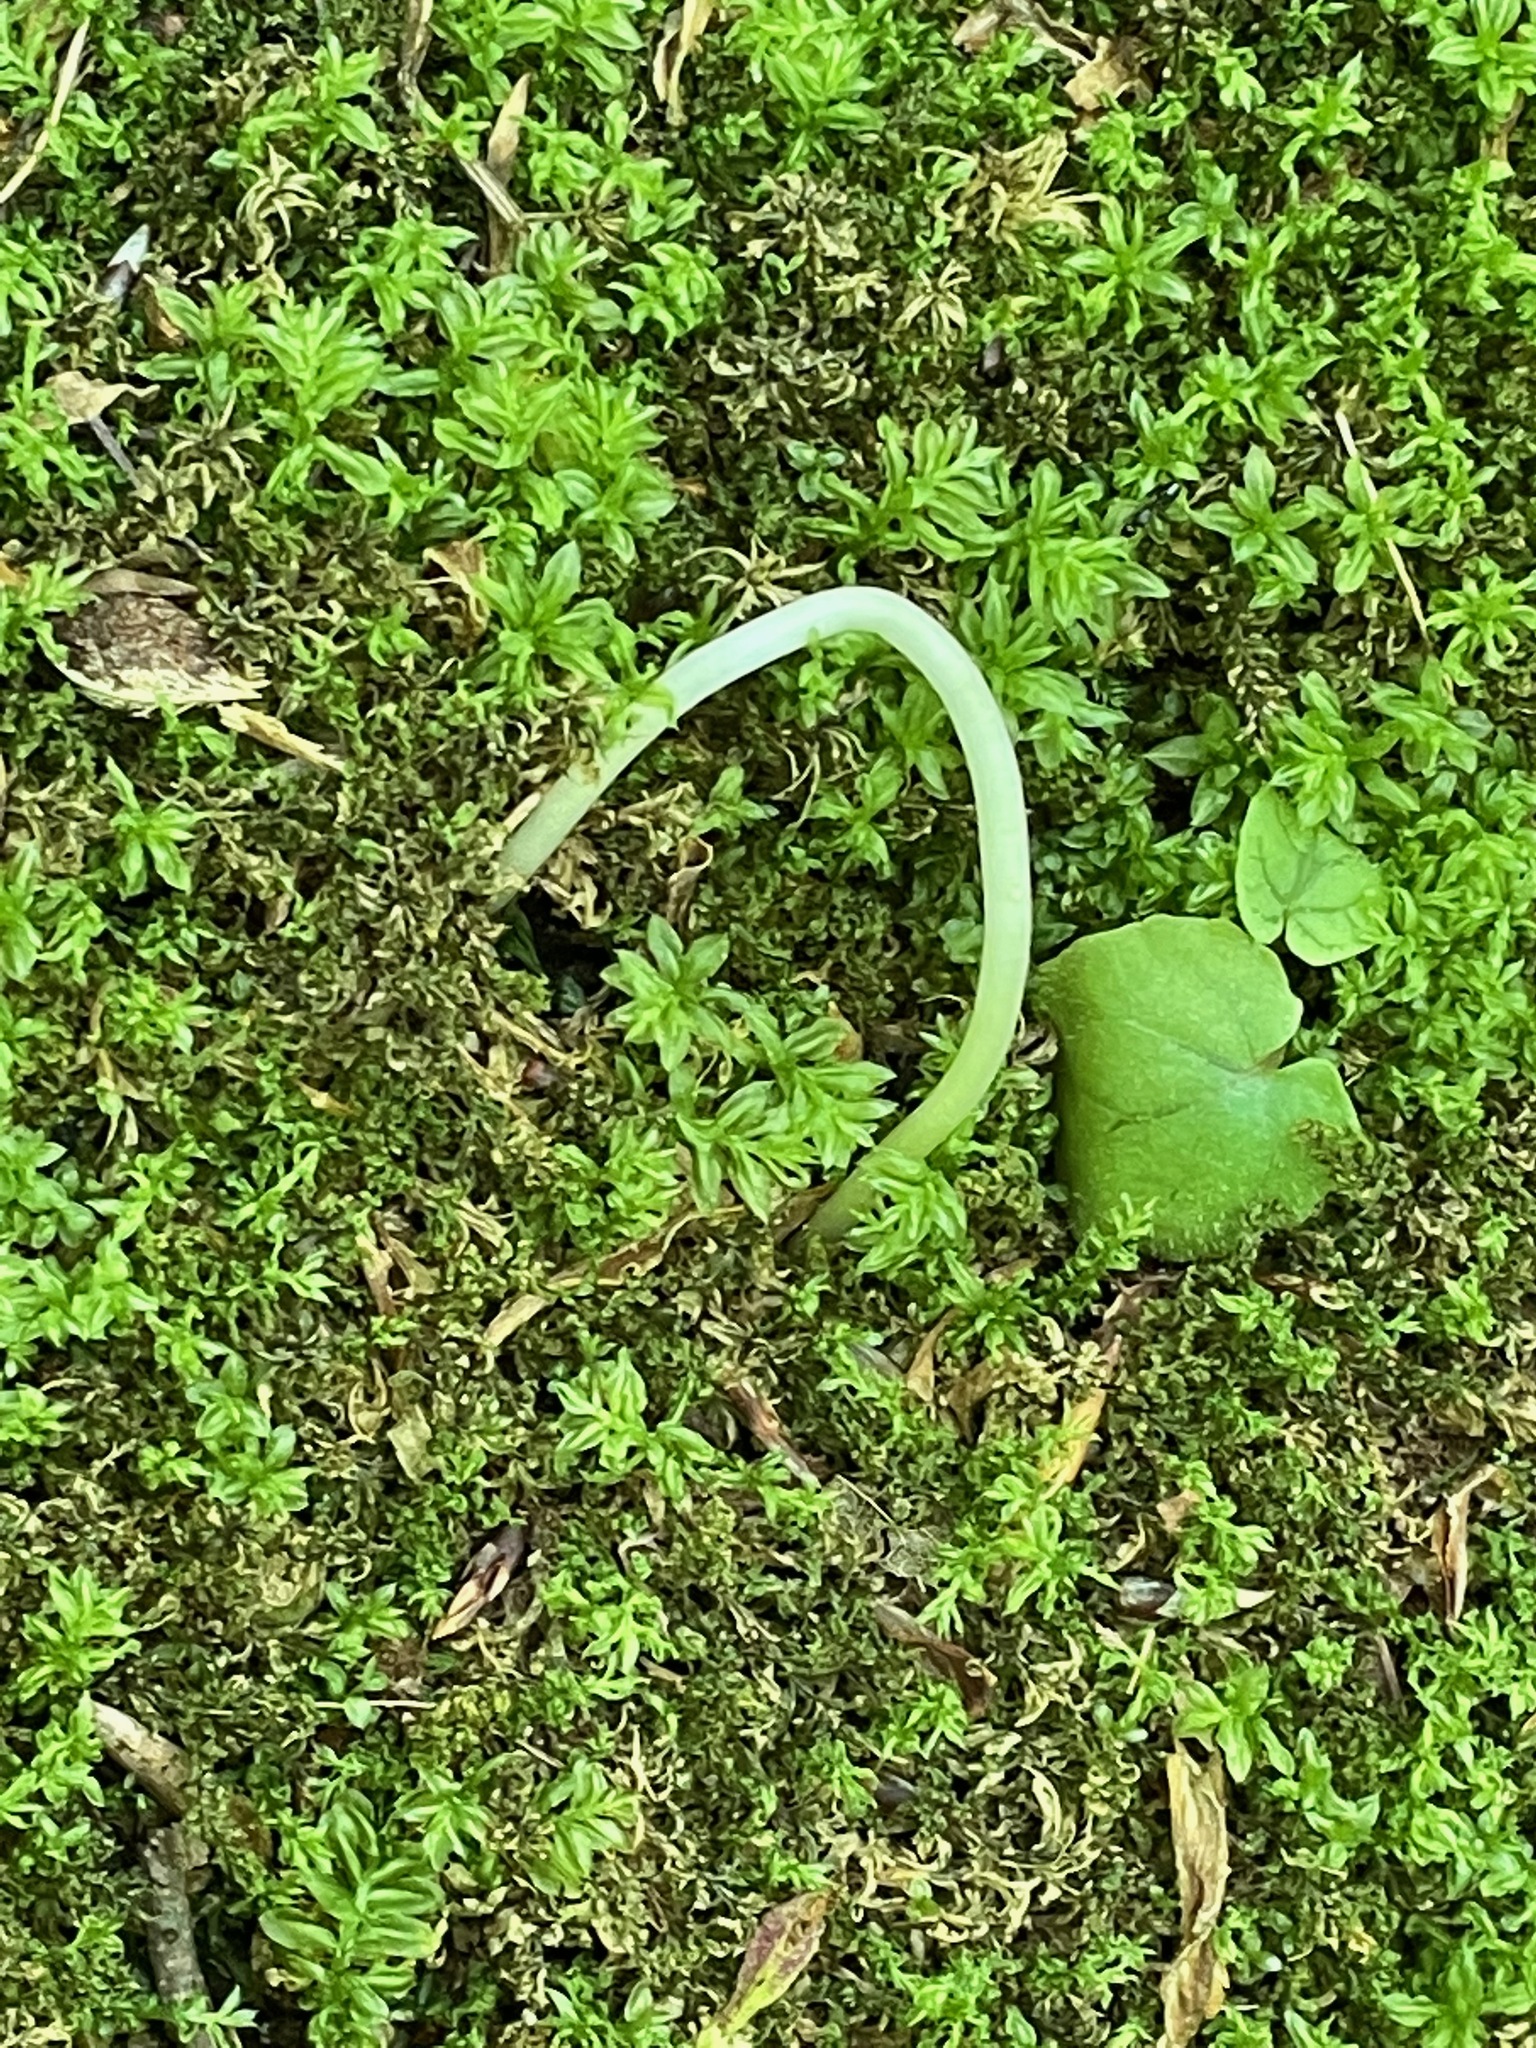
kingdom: Plantae
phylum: Tracheophyta
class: Liliopsida
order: Liliales
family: Liliaceae
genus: Erythronium
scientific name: Erythronium americanum
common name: Yellow adder's-tongue
